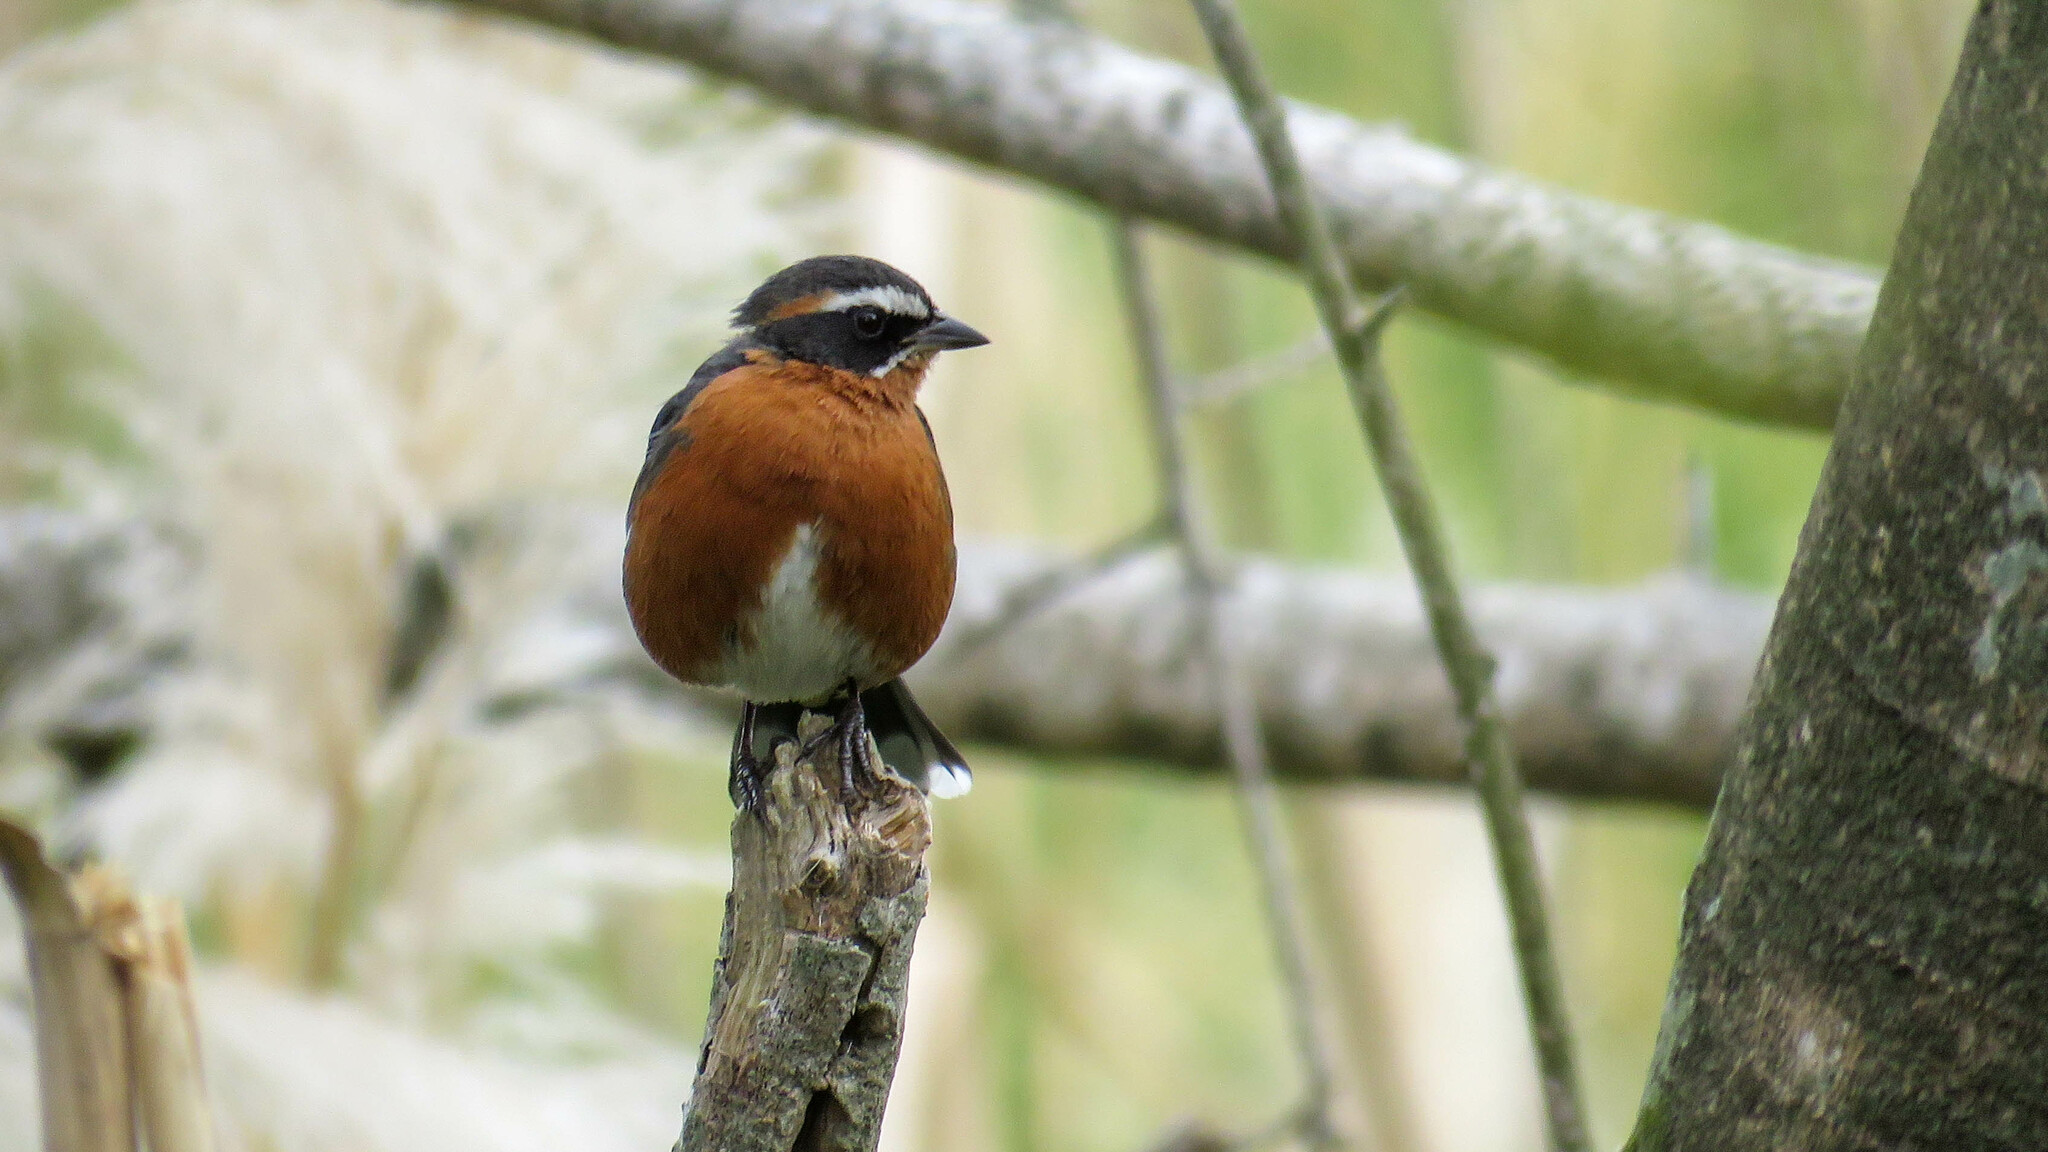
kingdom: Animalia
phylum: Chordata
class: Aves
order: Passeriformes
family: Thraupidae
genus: Poospiza
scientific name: Poospiza nigrorufa
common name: Black-and-rufous warbling finch
